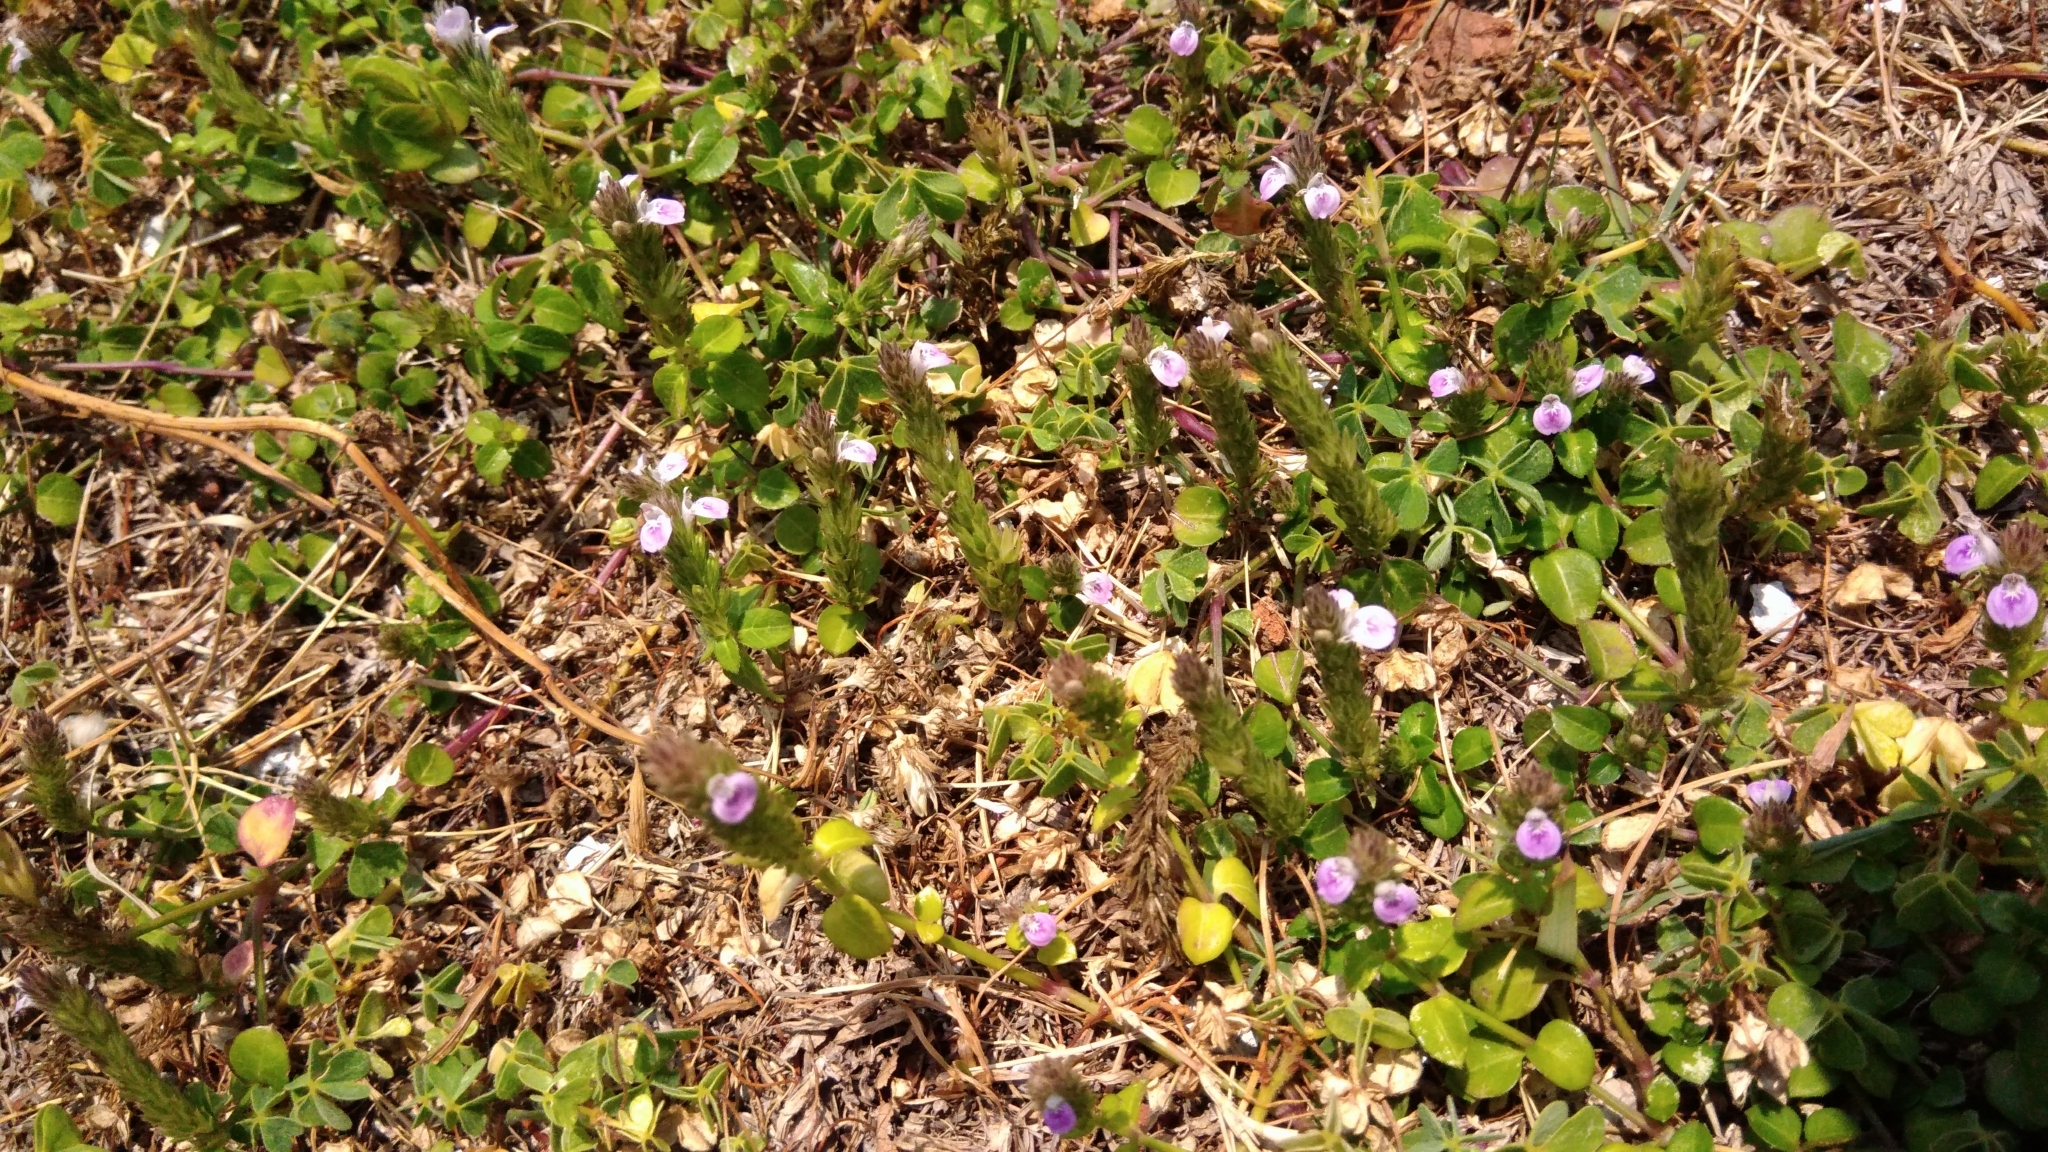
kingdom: Plantae
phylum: Tracheophyta
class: Magnoliopsida
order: Lamiales
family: Acanthaceae
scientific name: Acanthaceae
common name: Acanthaceae
